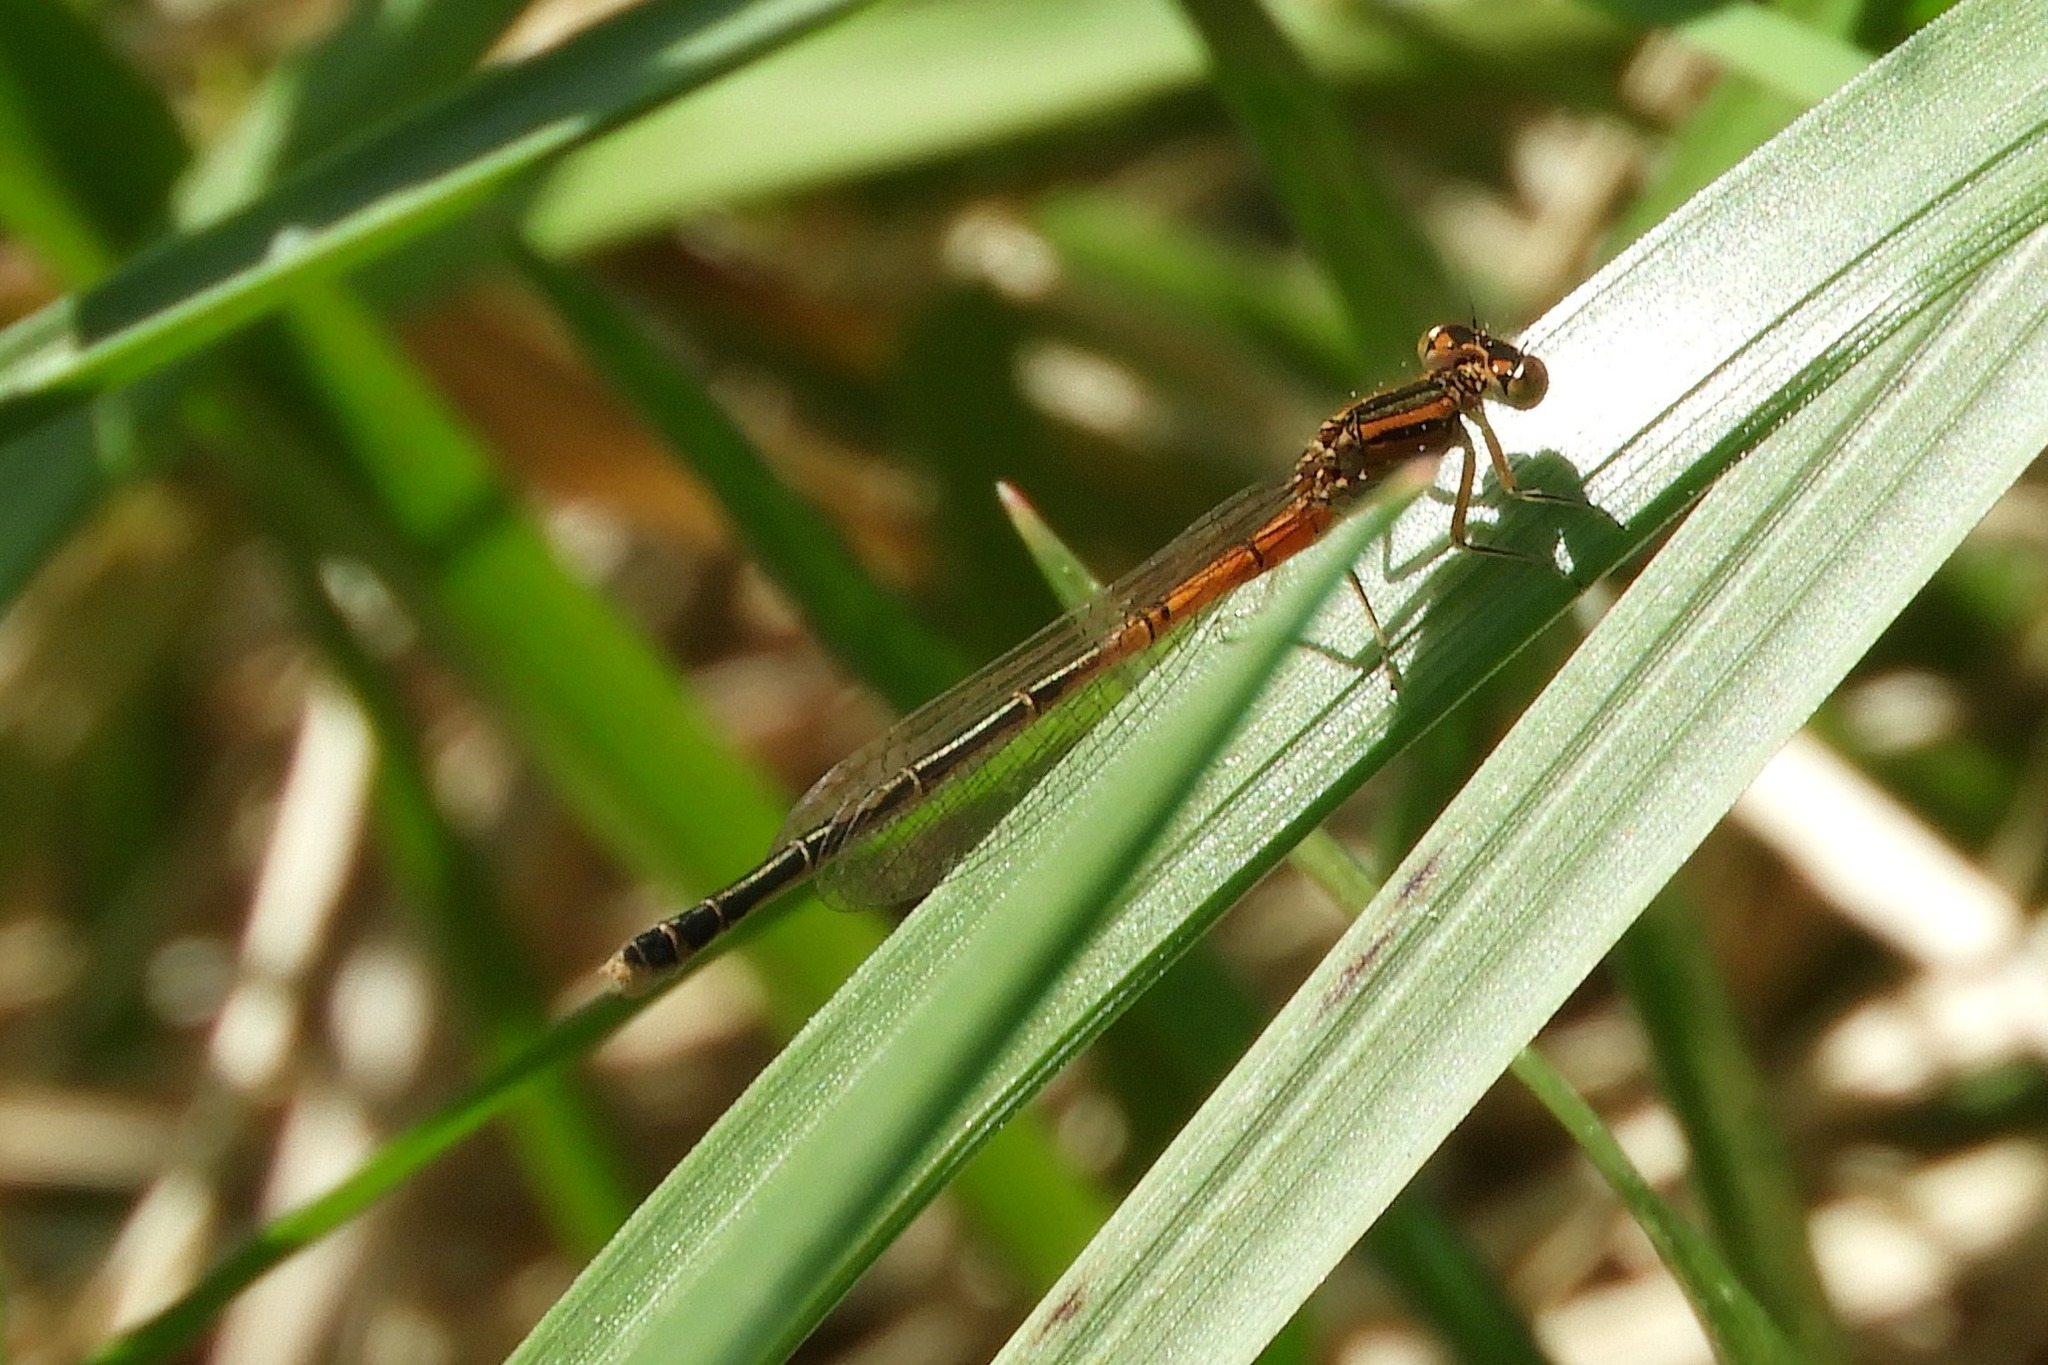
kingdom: Animalia
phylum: Arthropoda
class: Insecta
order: Odonata
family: Coenagrionidae
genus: Ischnura
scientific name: Ischnura verticalis
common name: Eastern forktail
